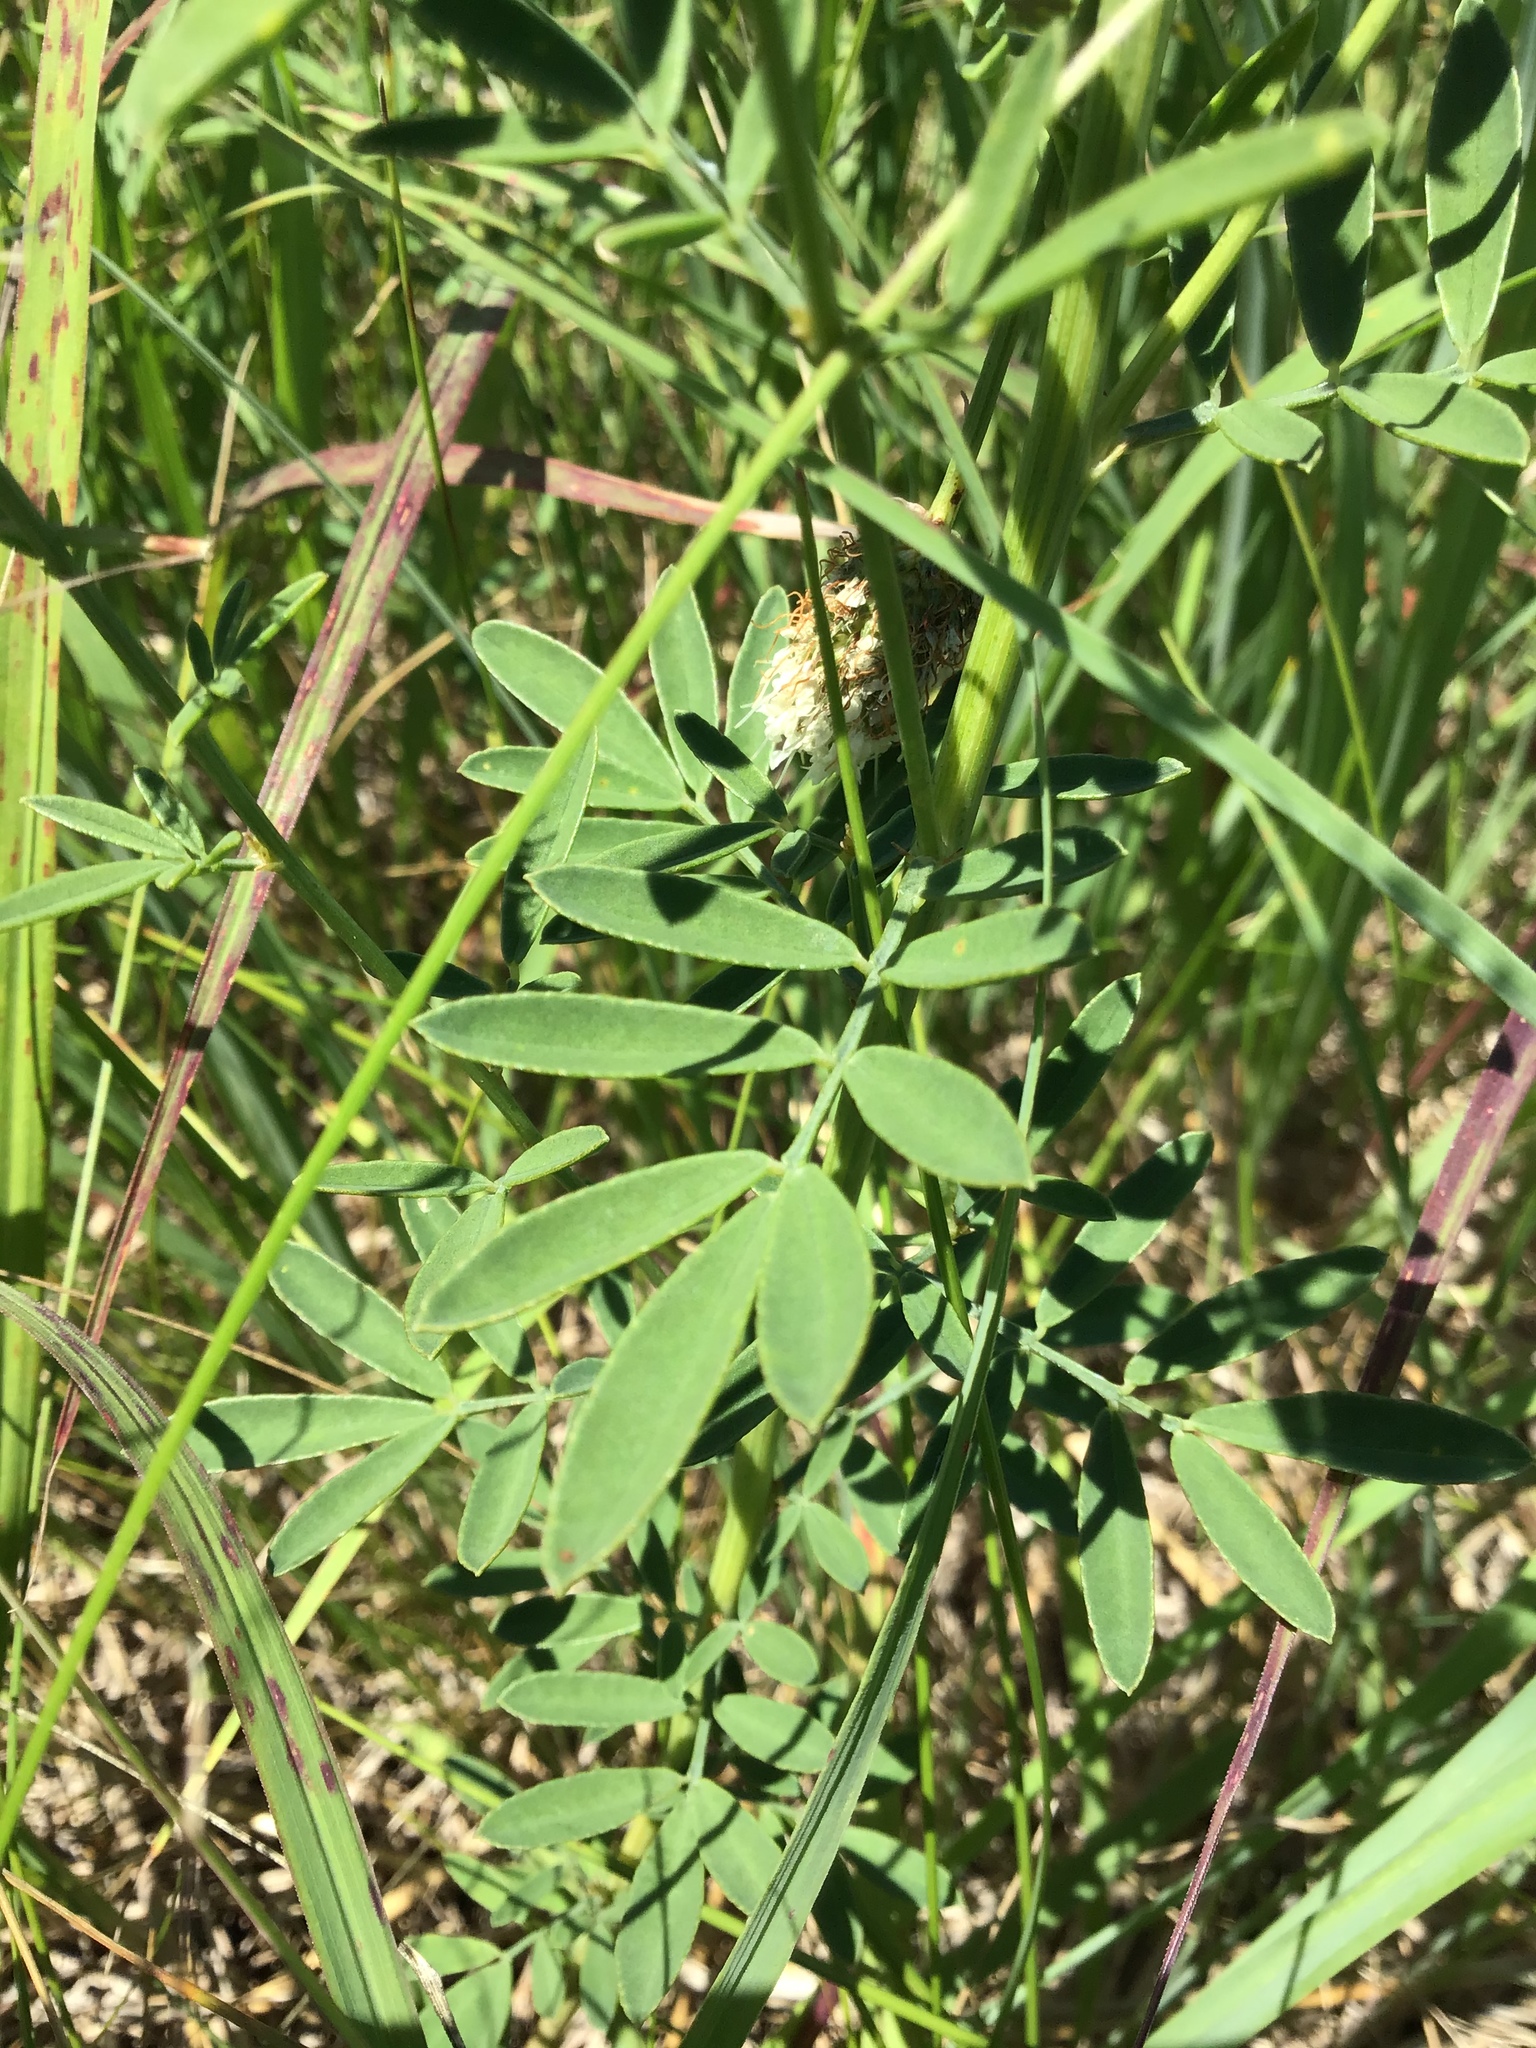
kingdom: Plantae
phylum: Tracheophyta
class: Magnoliopsida
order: Fabales
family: Fabaceae
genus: Dalea
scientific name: Dalea candida
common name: White prairie-clover
